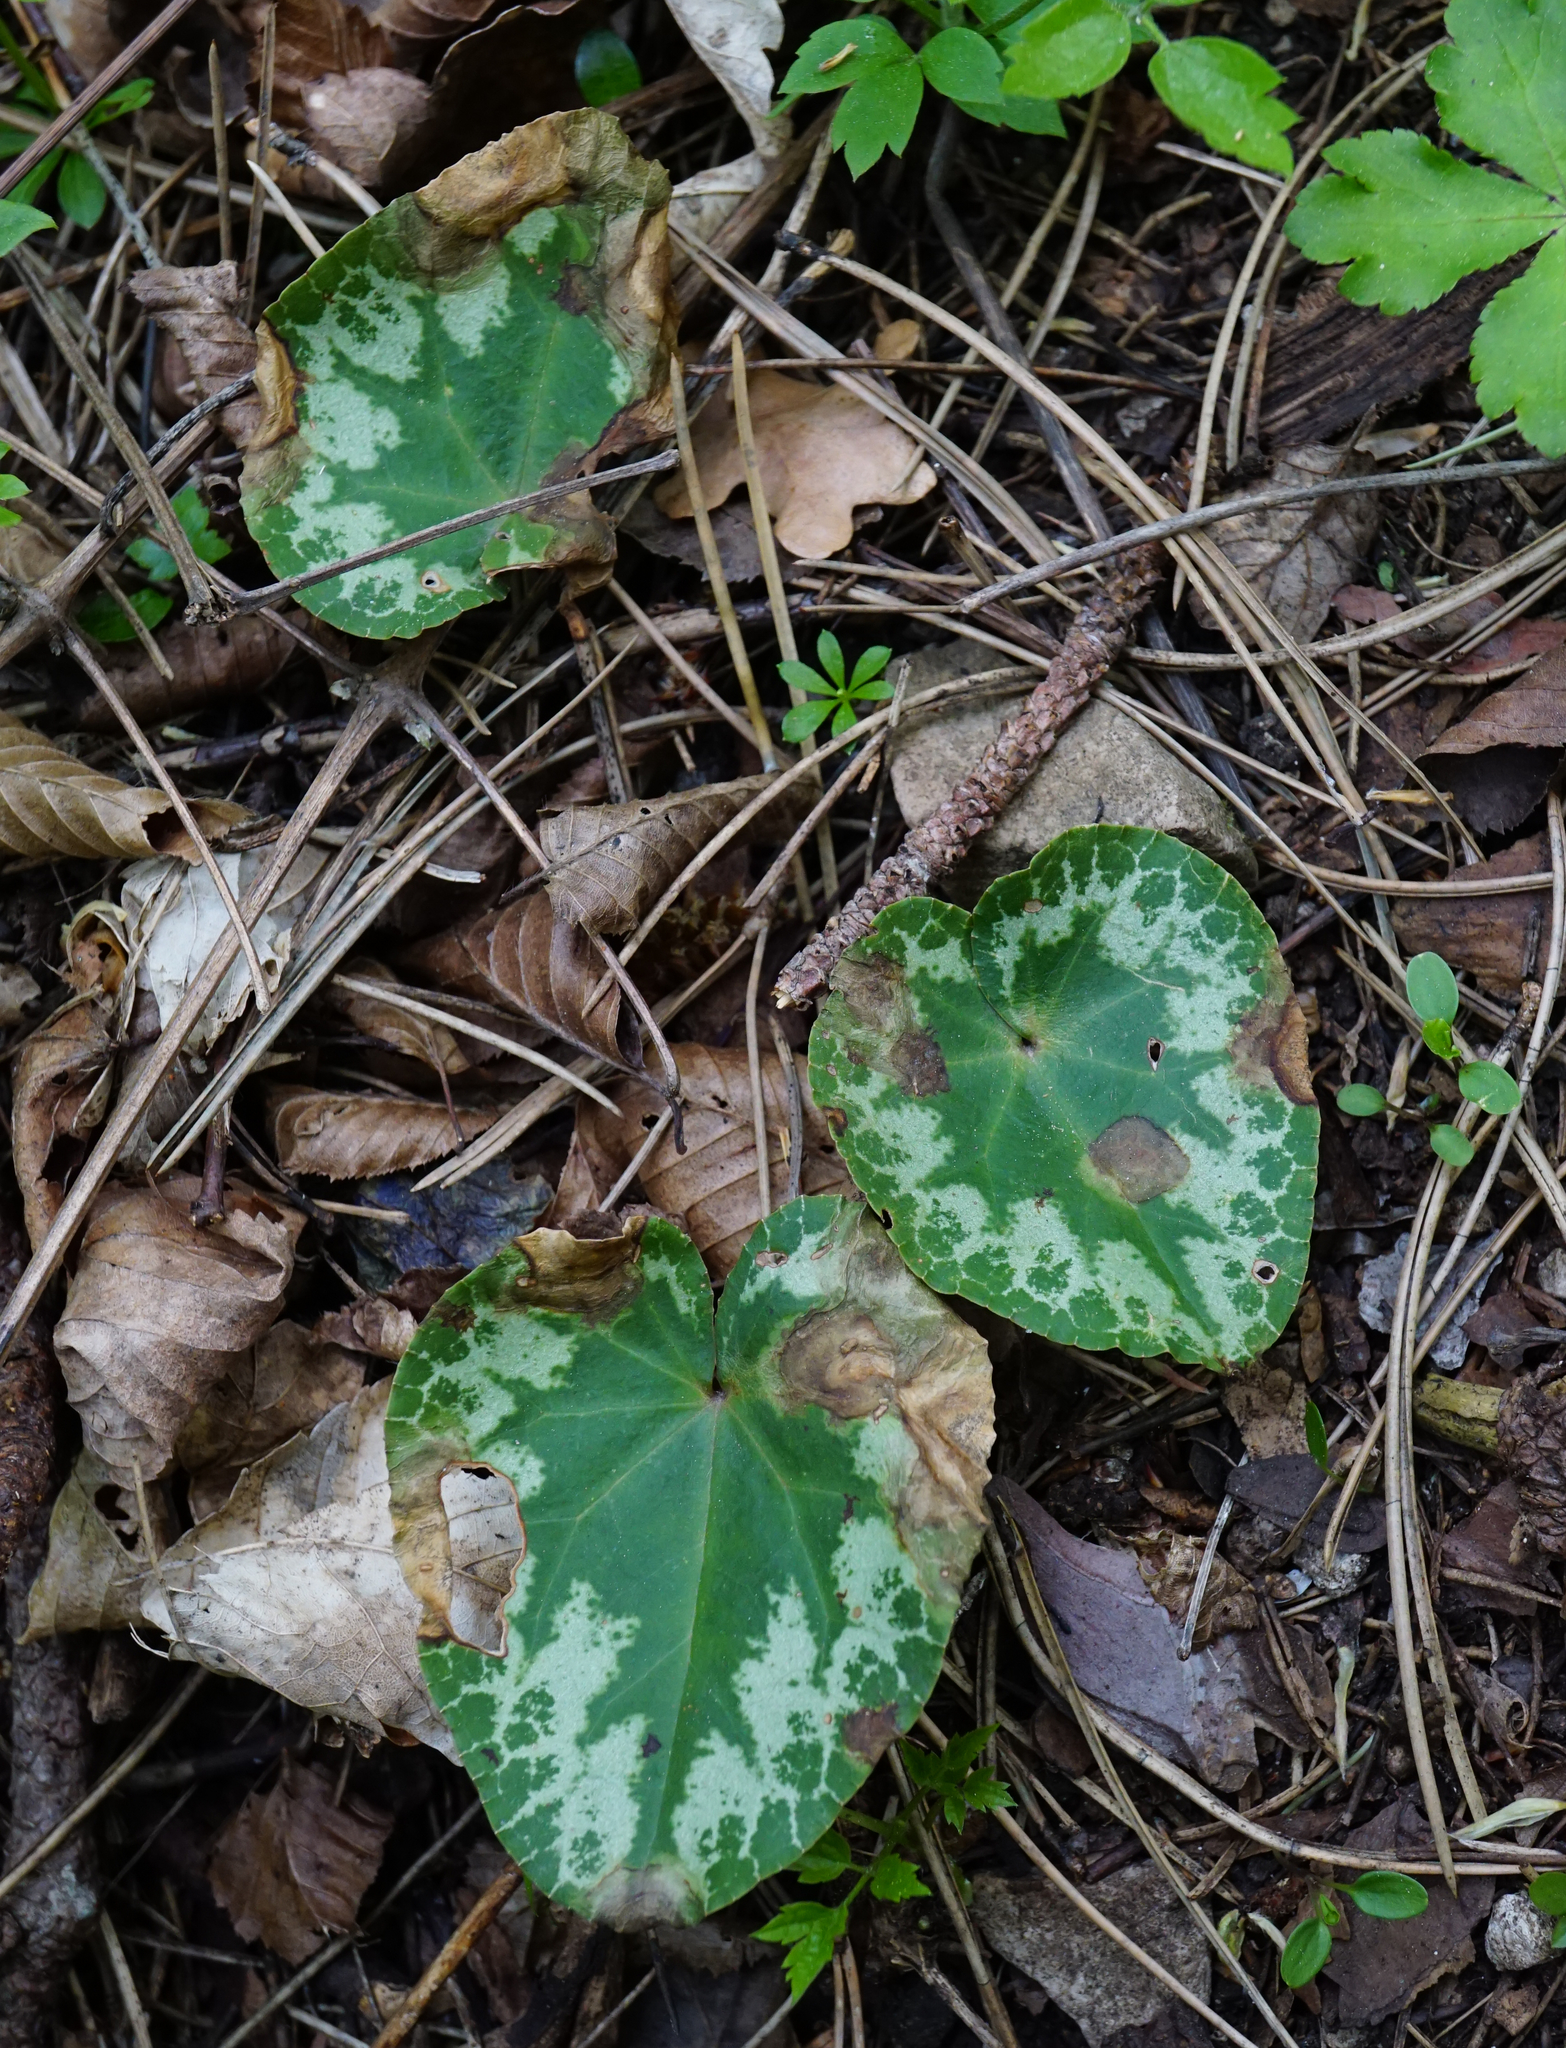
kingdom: Plantae
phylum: Tracheophyta
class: Magnoliopsida
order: Ericales
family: Primulaceae
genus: Cyclamen
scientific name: Cyclamen purpurascens
